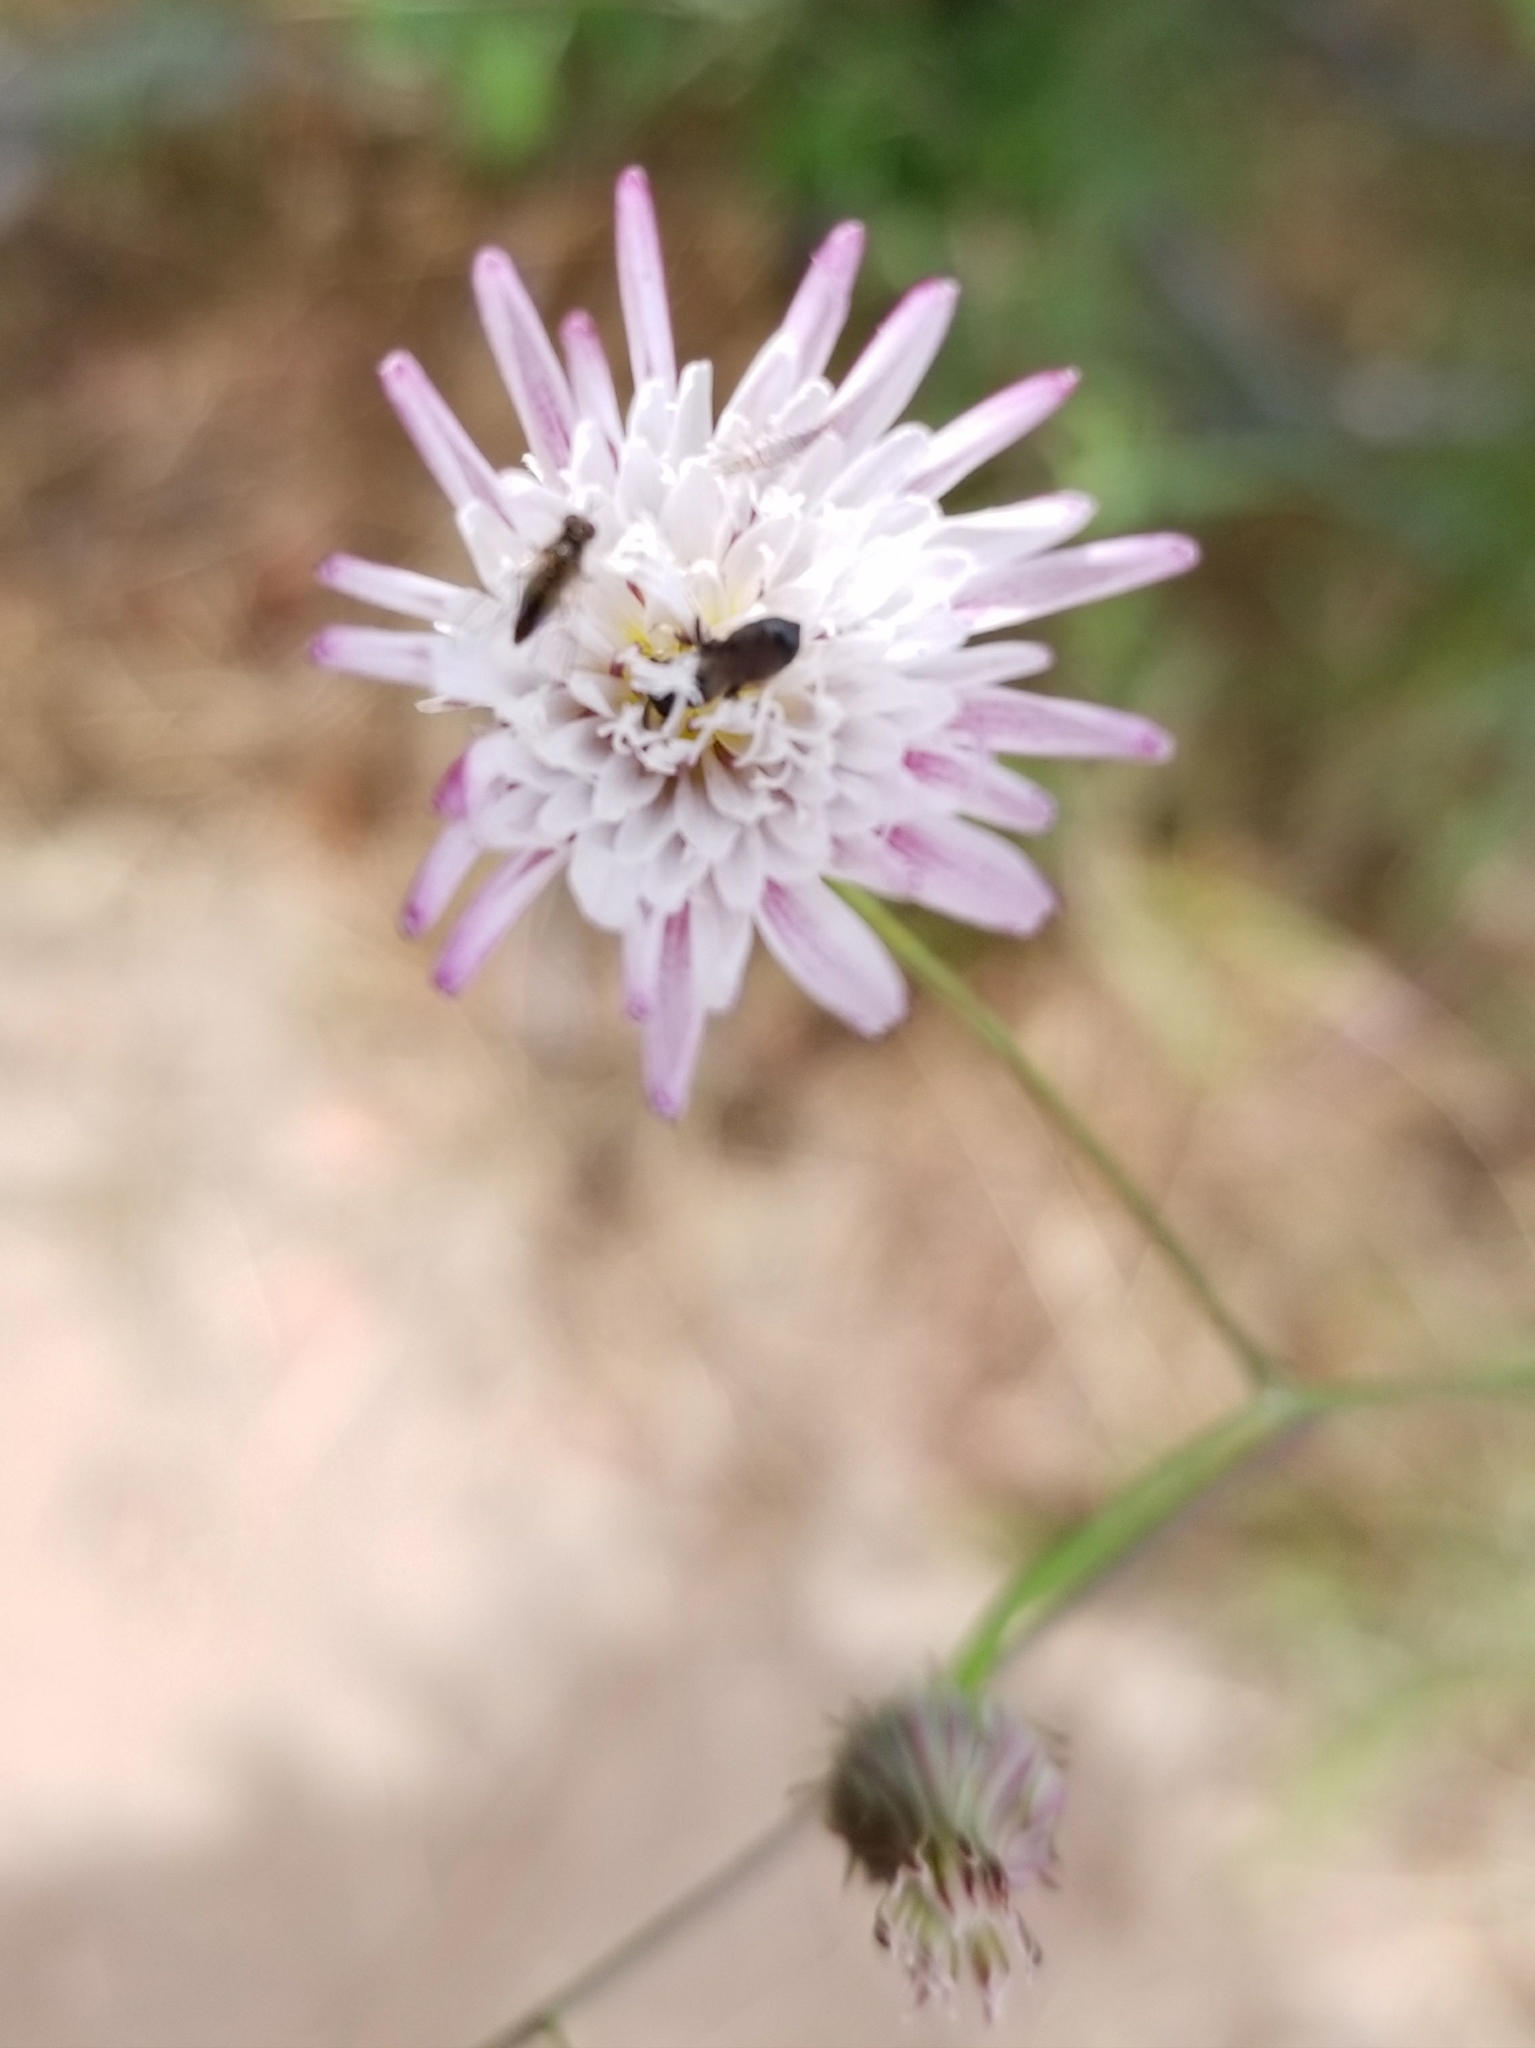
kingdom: Plantae
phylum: Tracheophyta
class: Magnoliopsida
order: Asterales
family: Asteraceae
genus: Malacothrix
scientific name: Malacothrix saxatilis
